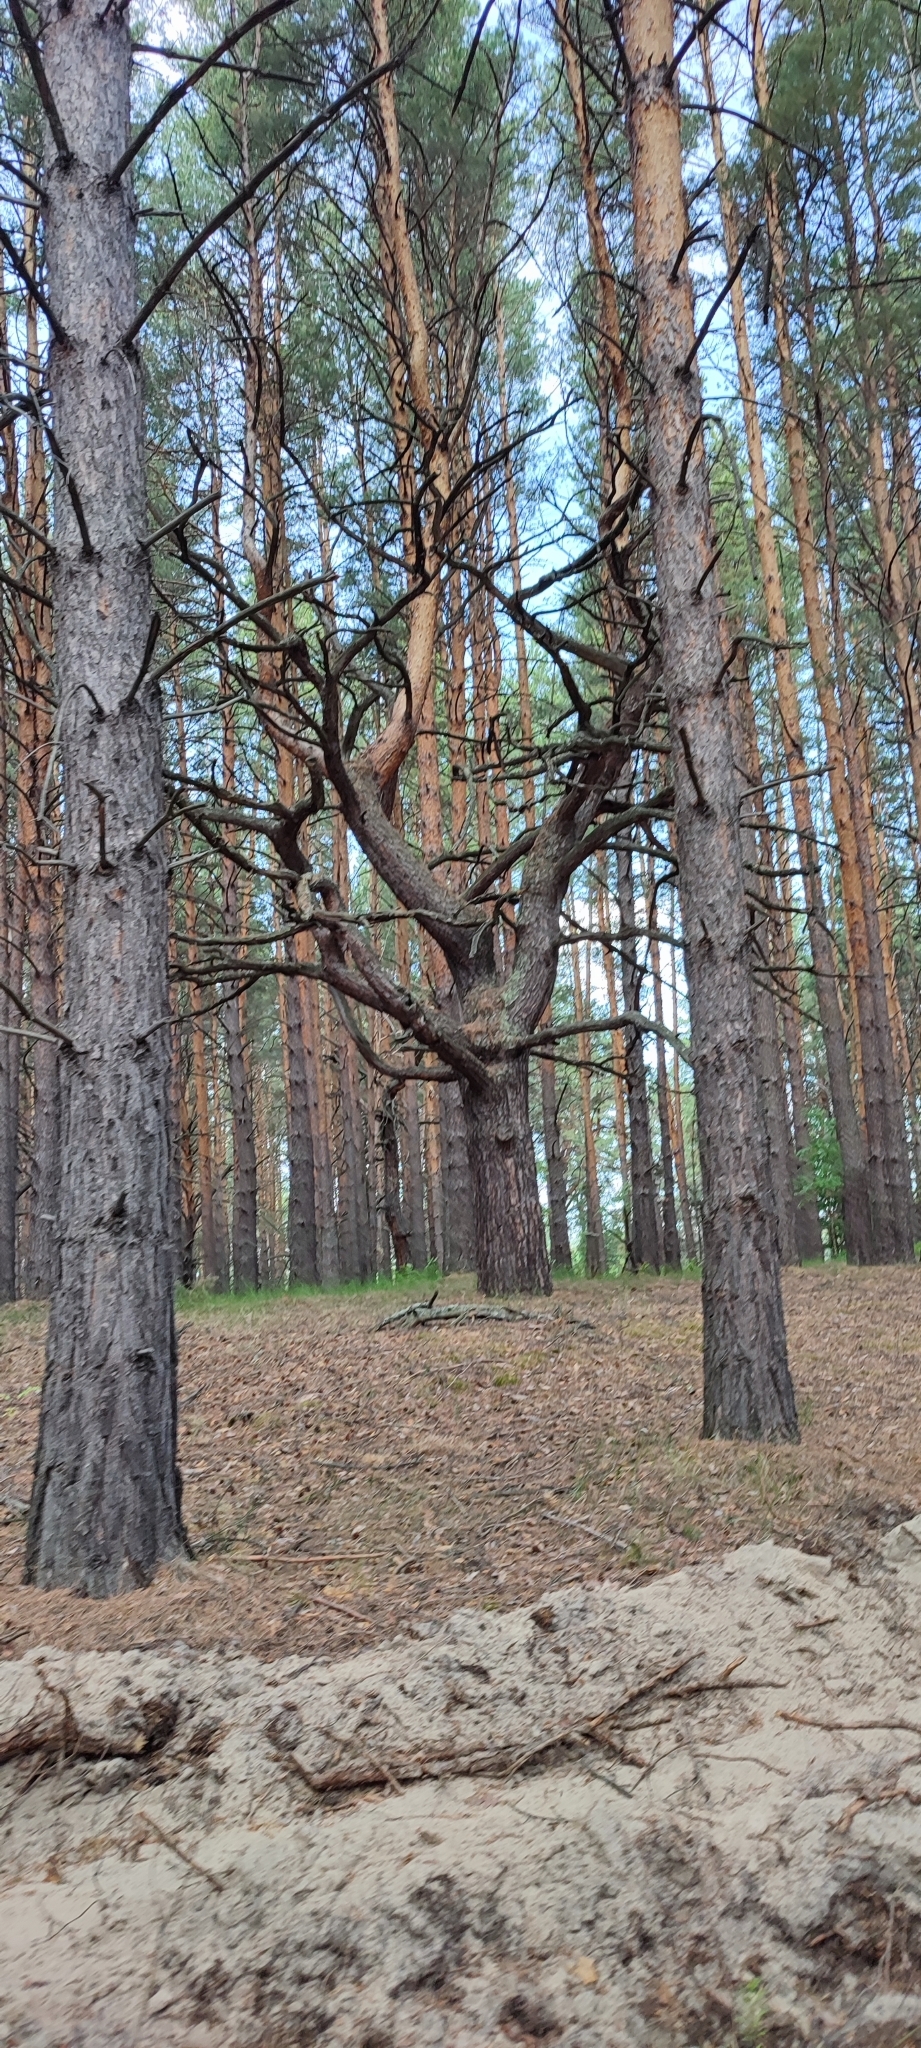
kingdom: Plantae
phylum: Tracheophyta
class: Pinopsida
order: Pinales
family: Pinaceae
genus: Pinus
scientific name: Pinus sylvestris
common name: Scots pine
